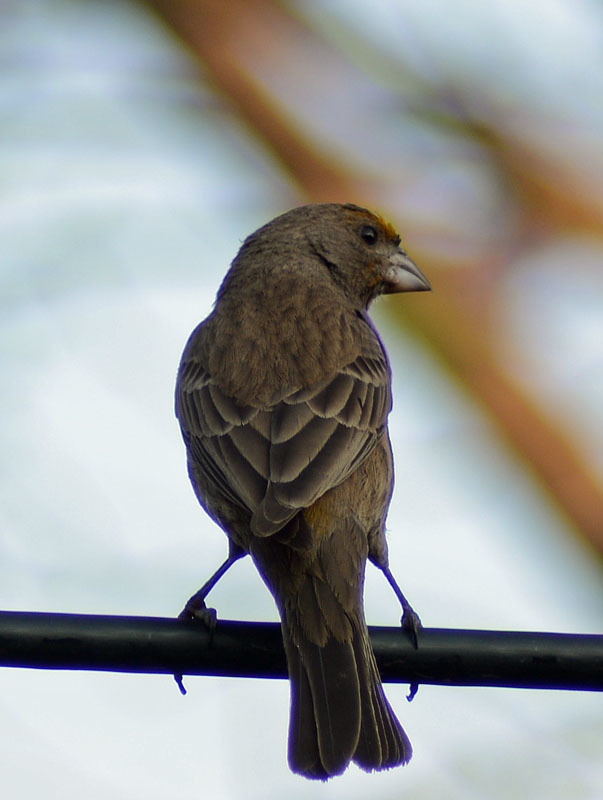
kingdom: Animalia
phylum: Chordata
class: Aves
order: Passeriformes
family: Fringillidae
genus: Haemorhous
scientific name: Haemorhous mexicanus
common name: House finch
